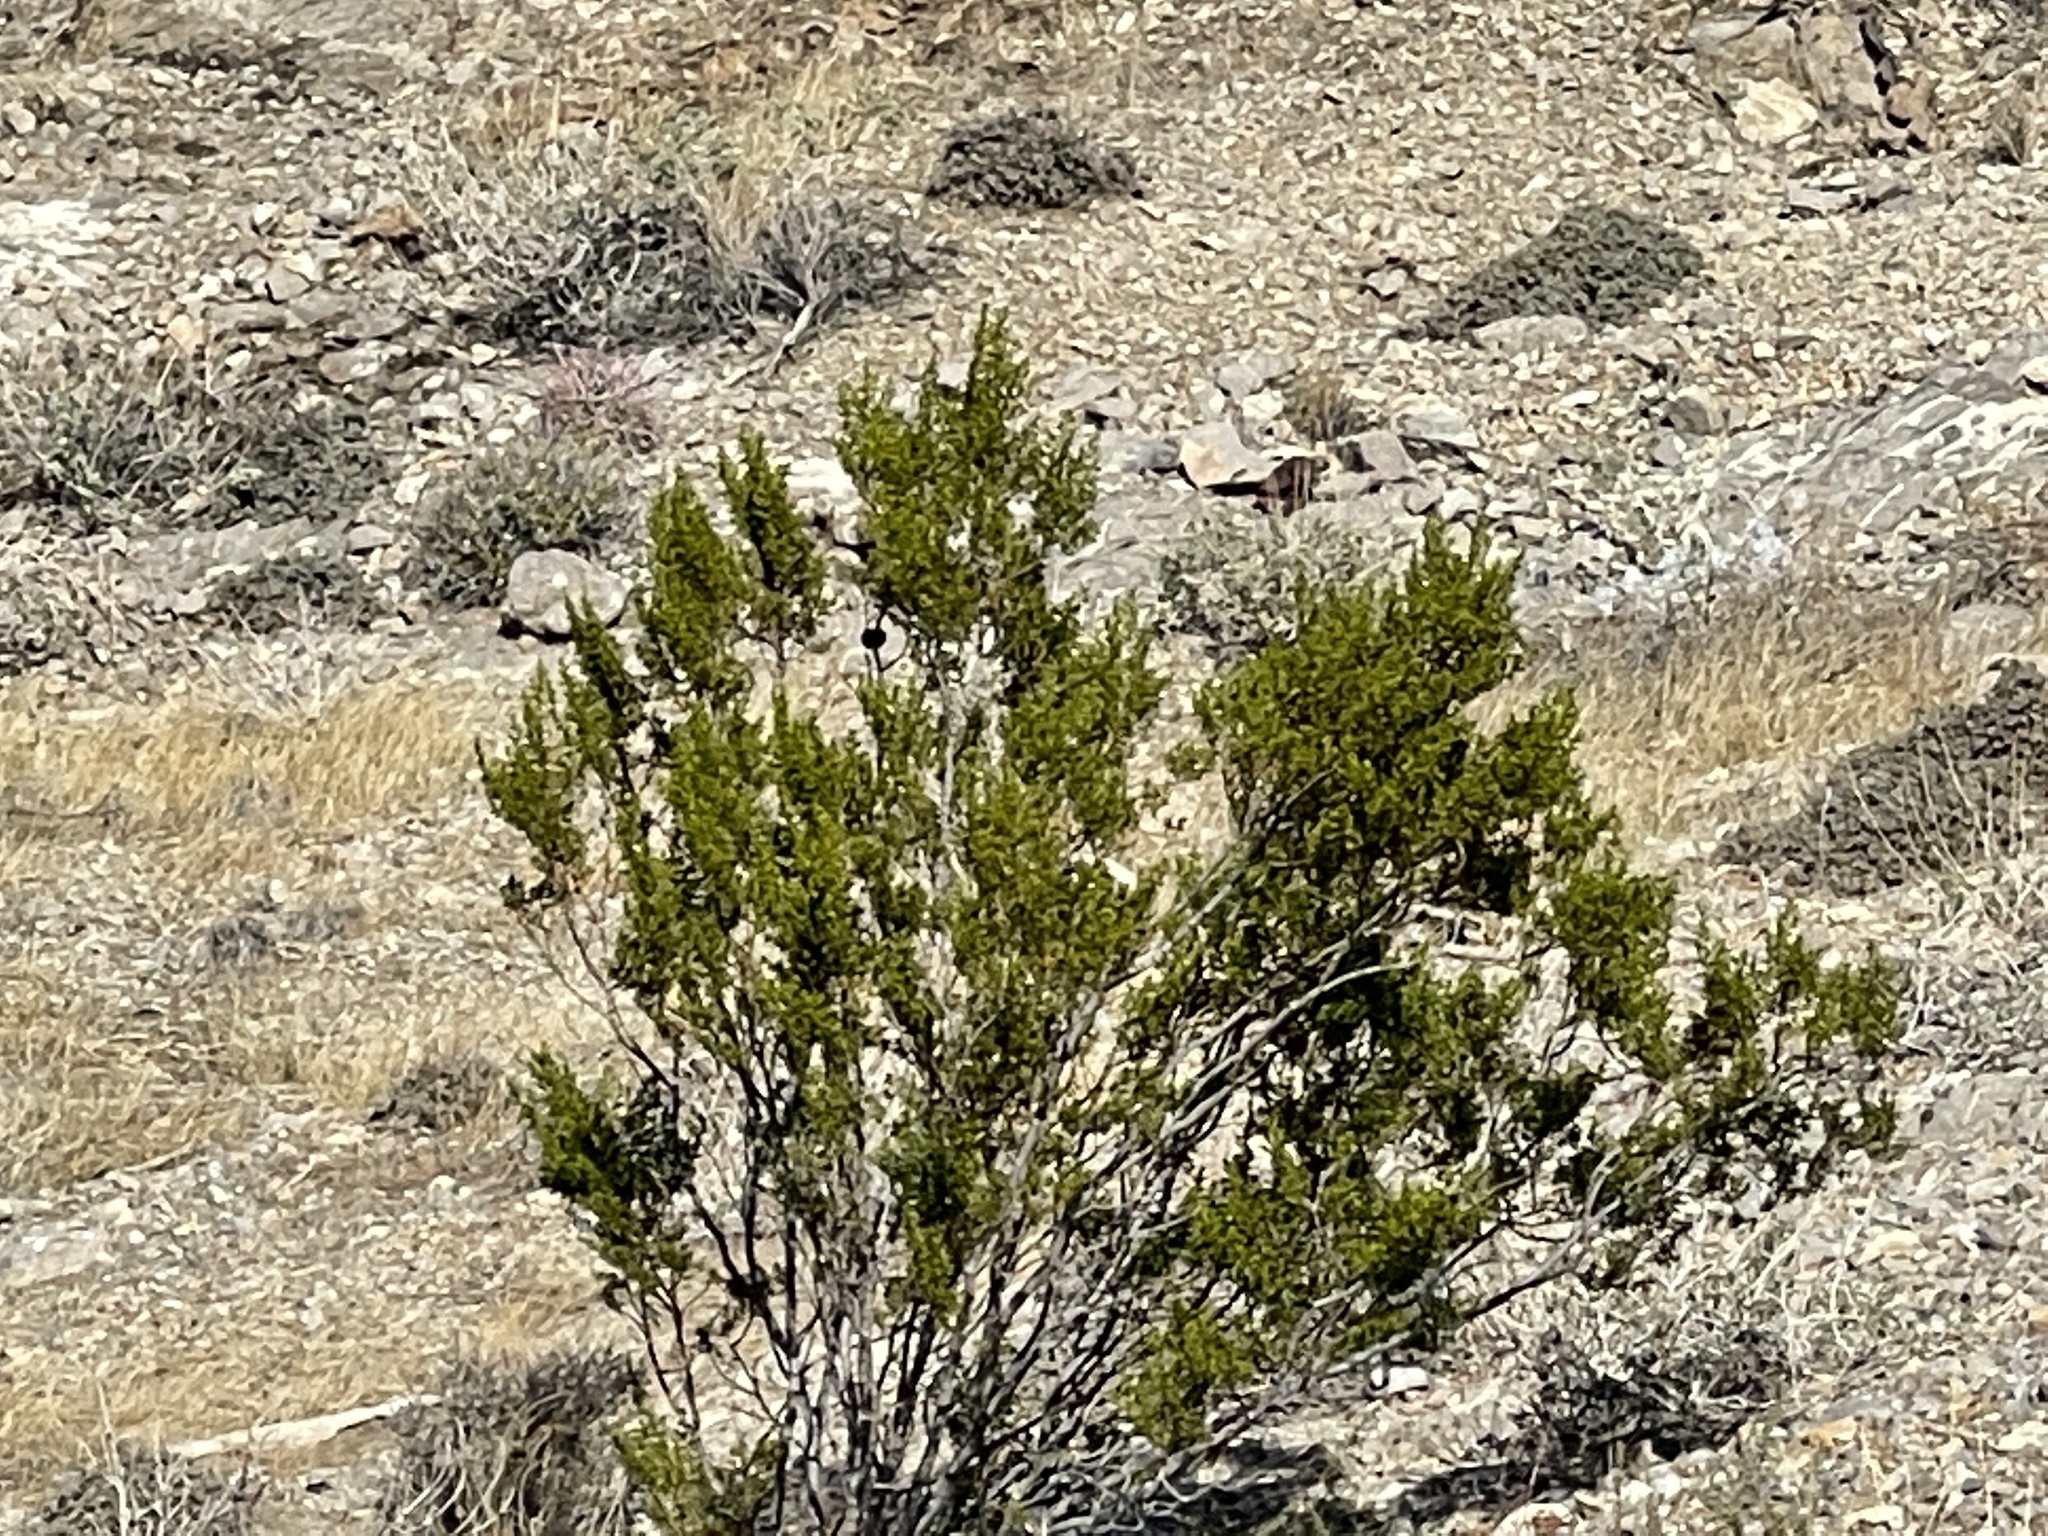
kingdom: Plantae
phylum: Tracheophyta
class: Magnoliopsida
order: Zygophyllales
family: Zygophyllaceae
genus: Larrea
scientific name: Larrea tridentata
